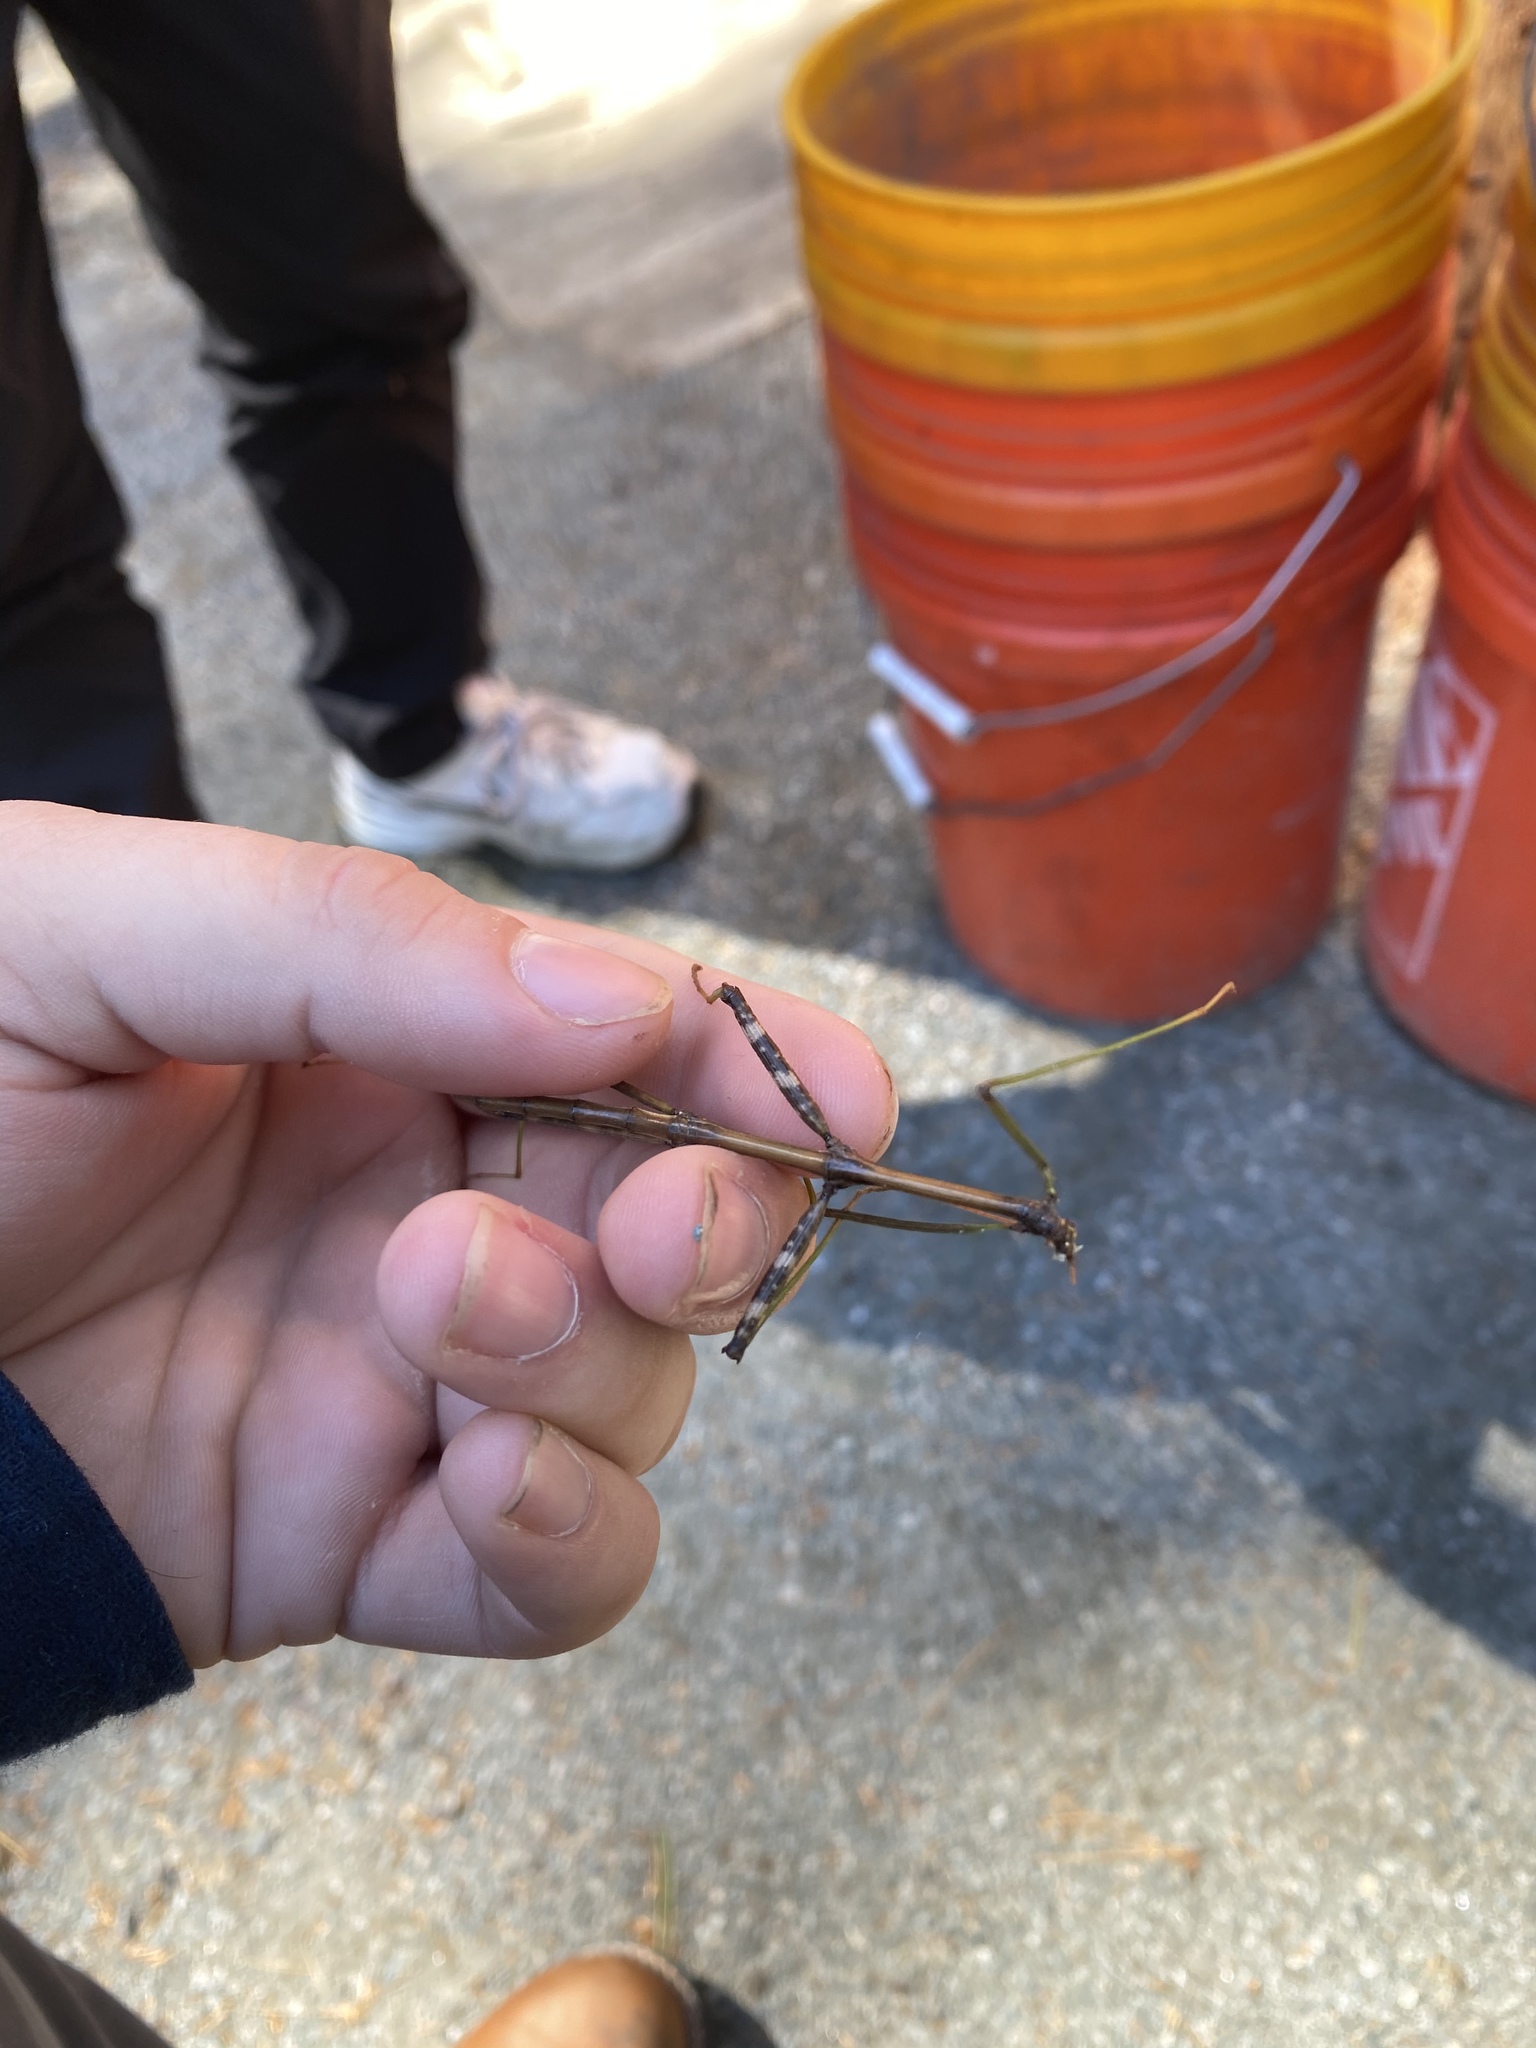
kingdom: Animalia
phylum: Arthropoda
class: Insecta
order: Phasmida
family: Diapheromeridae
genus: Diapheromera
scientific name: Diapheromera femorata
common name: Common american walkingstick
